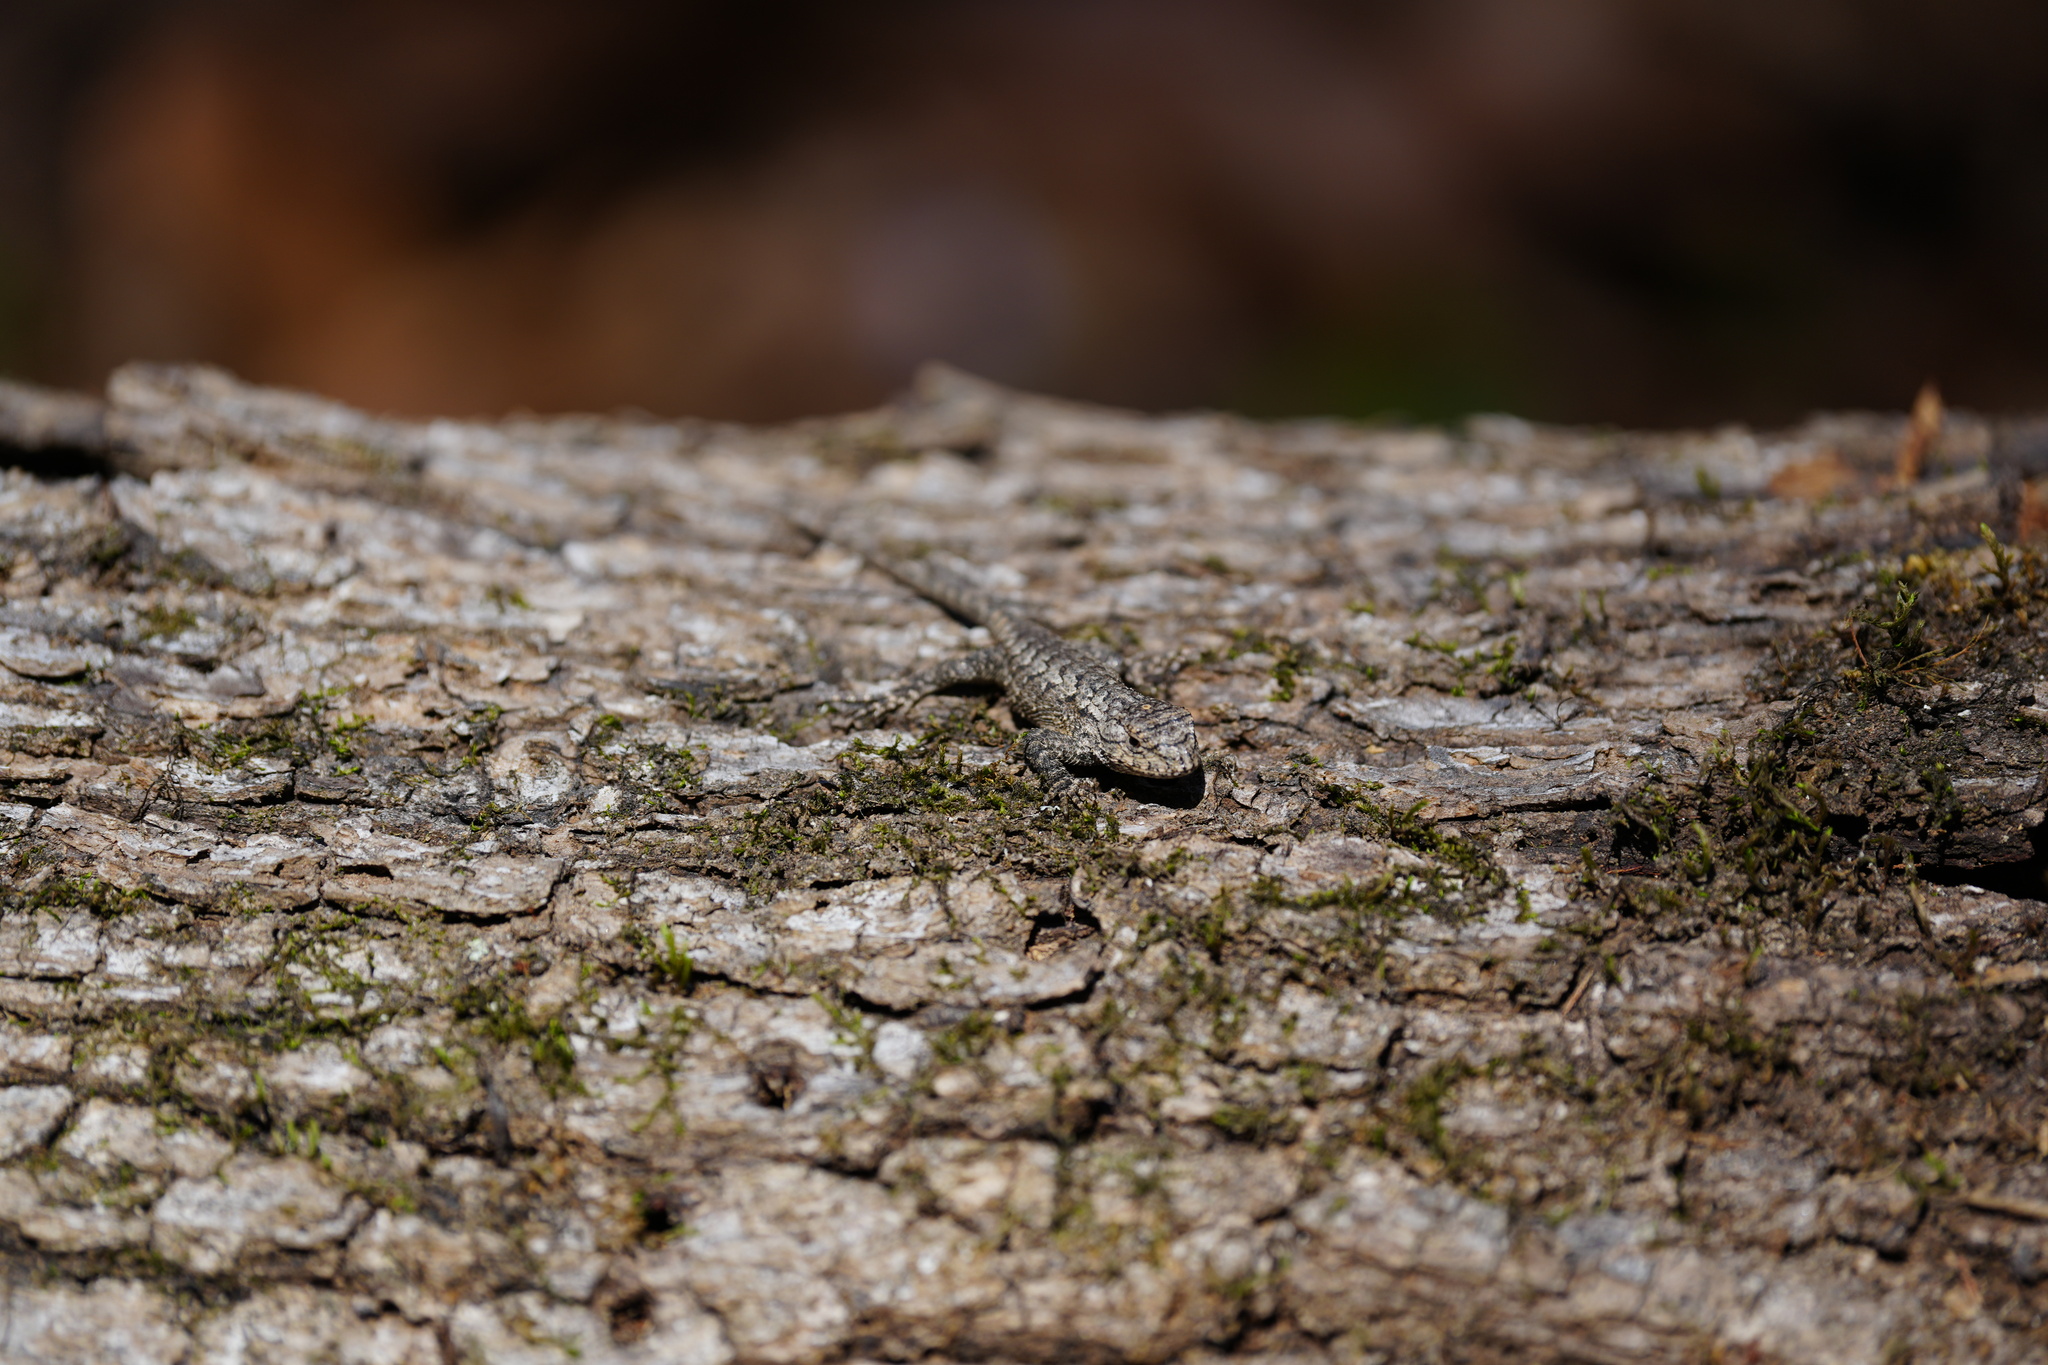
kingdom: Animalia
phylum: Chordata
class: Squamata
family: Phrynosomatidae
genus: Sceloporus
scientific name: Sceloporus consobrinus
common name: Southern prairie lizard
